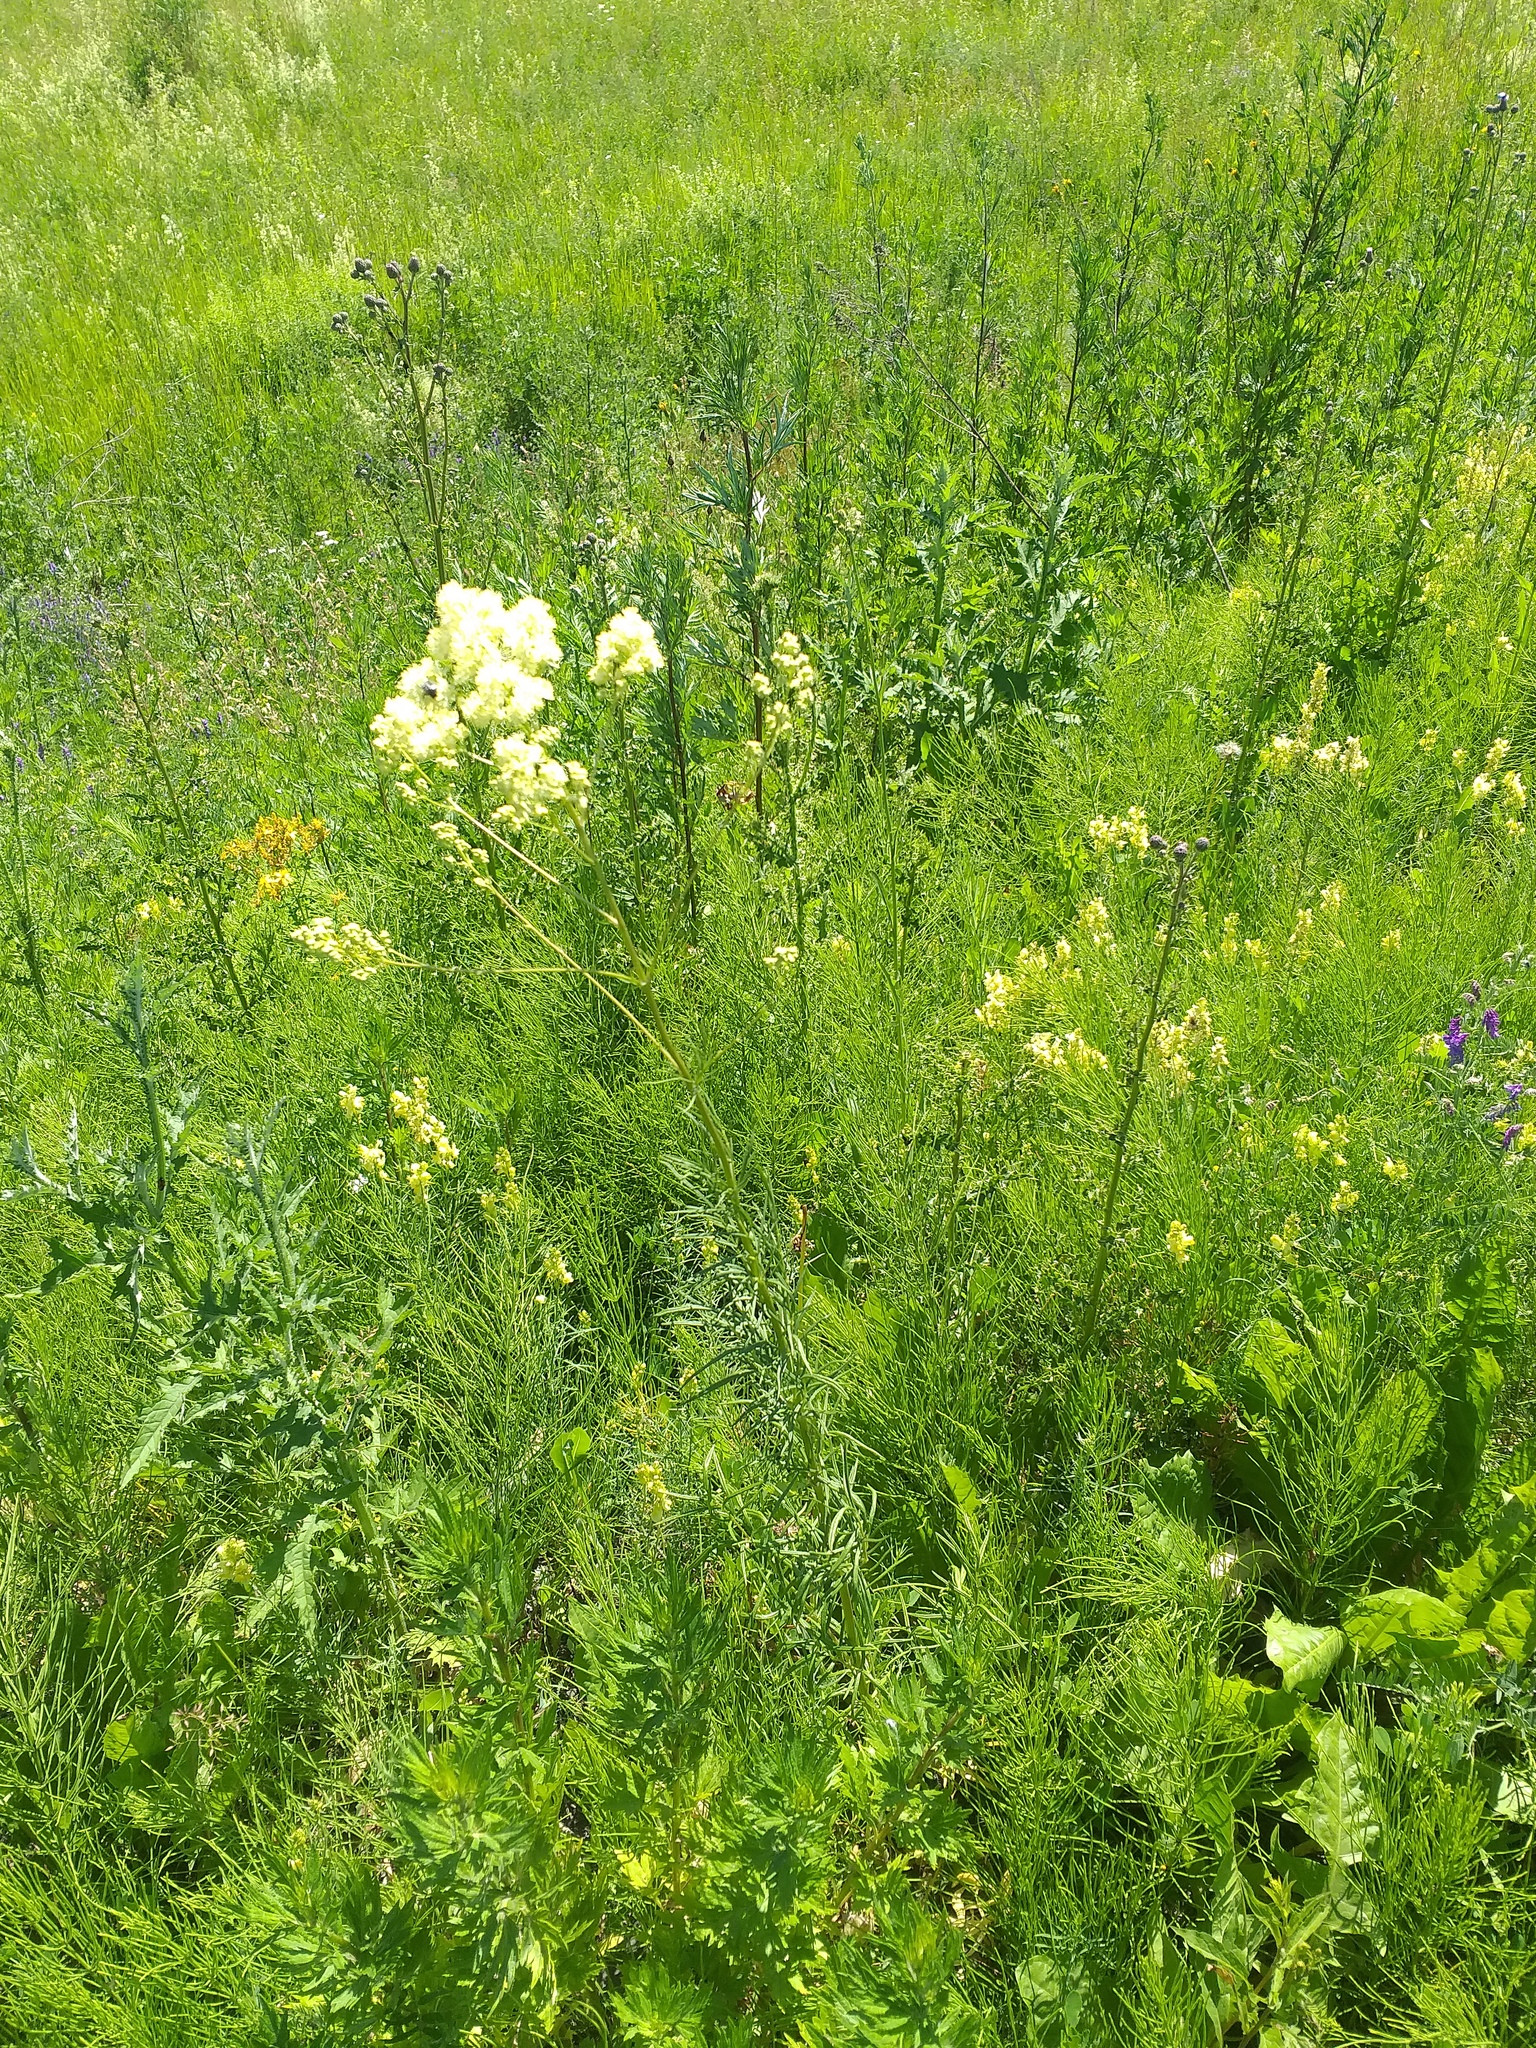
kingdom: Plantae
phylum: Tracheophyta
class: Magnoliopsida
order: Ranunculales
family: Ranunculaceae
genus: Thalictrum
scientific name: Thalictrum lucidum
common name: Shining meadow-rue
